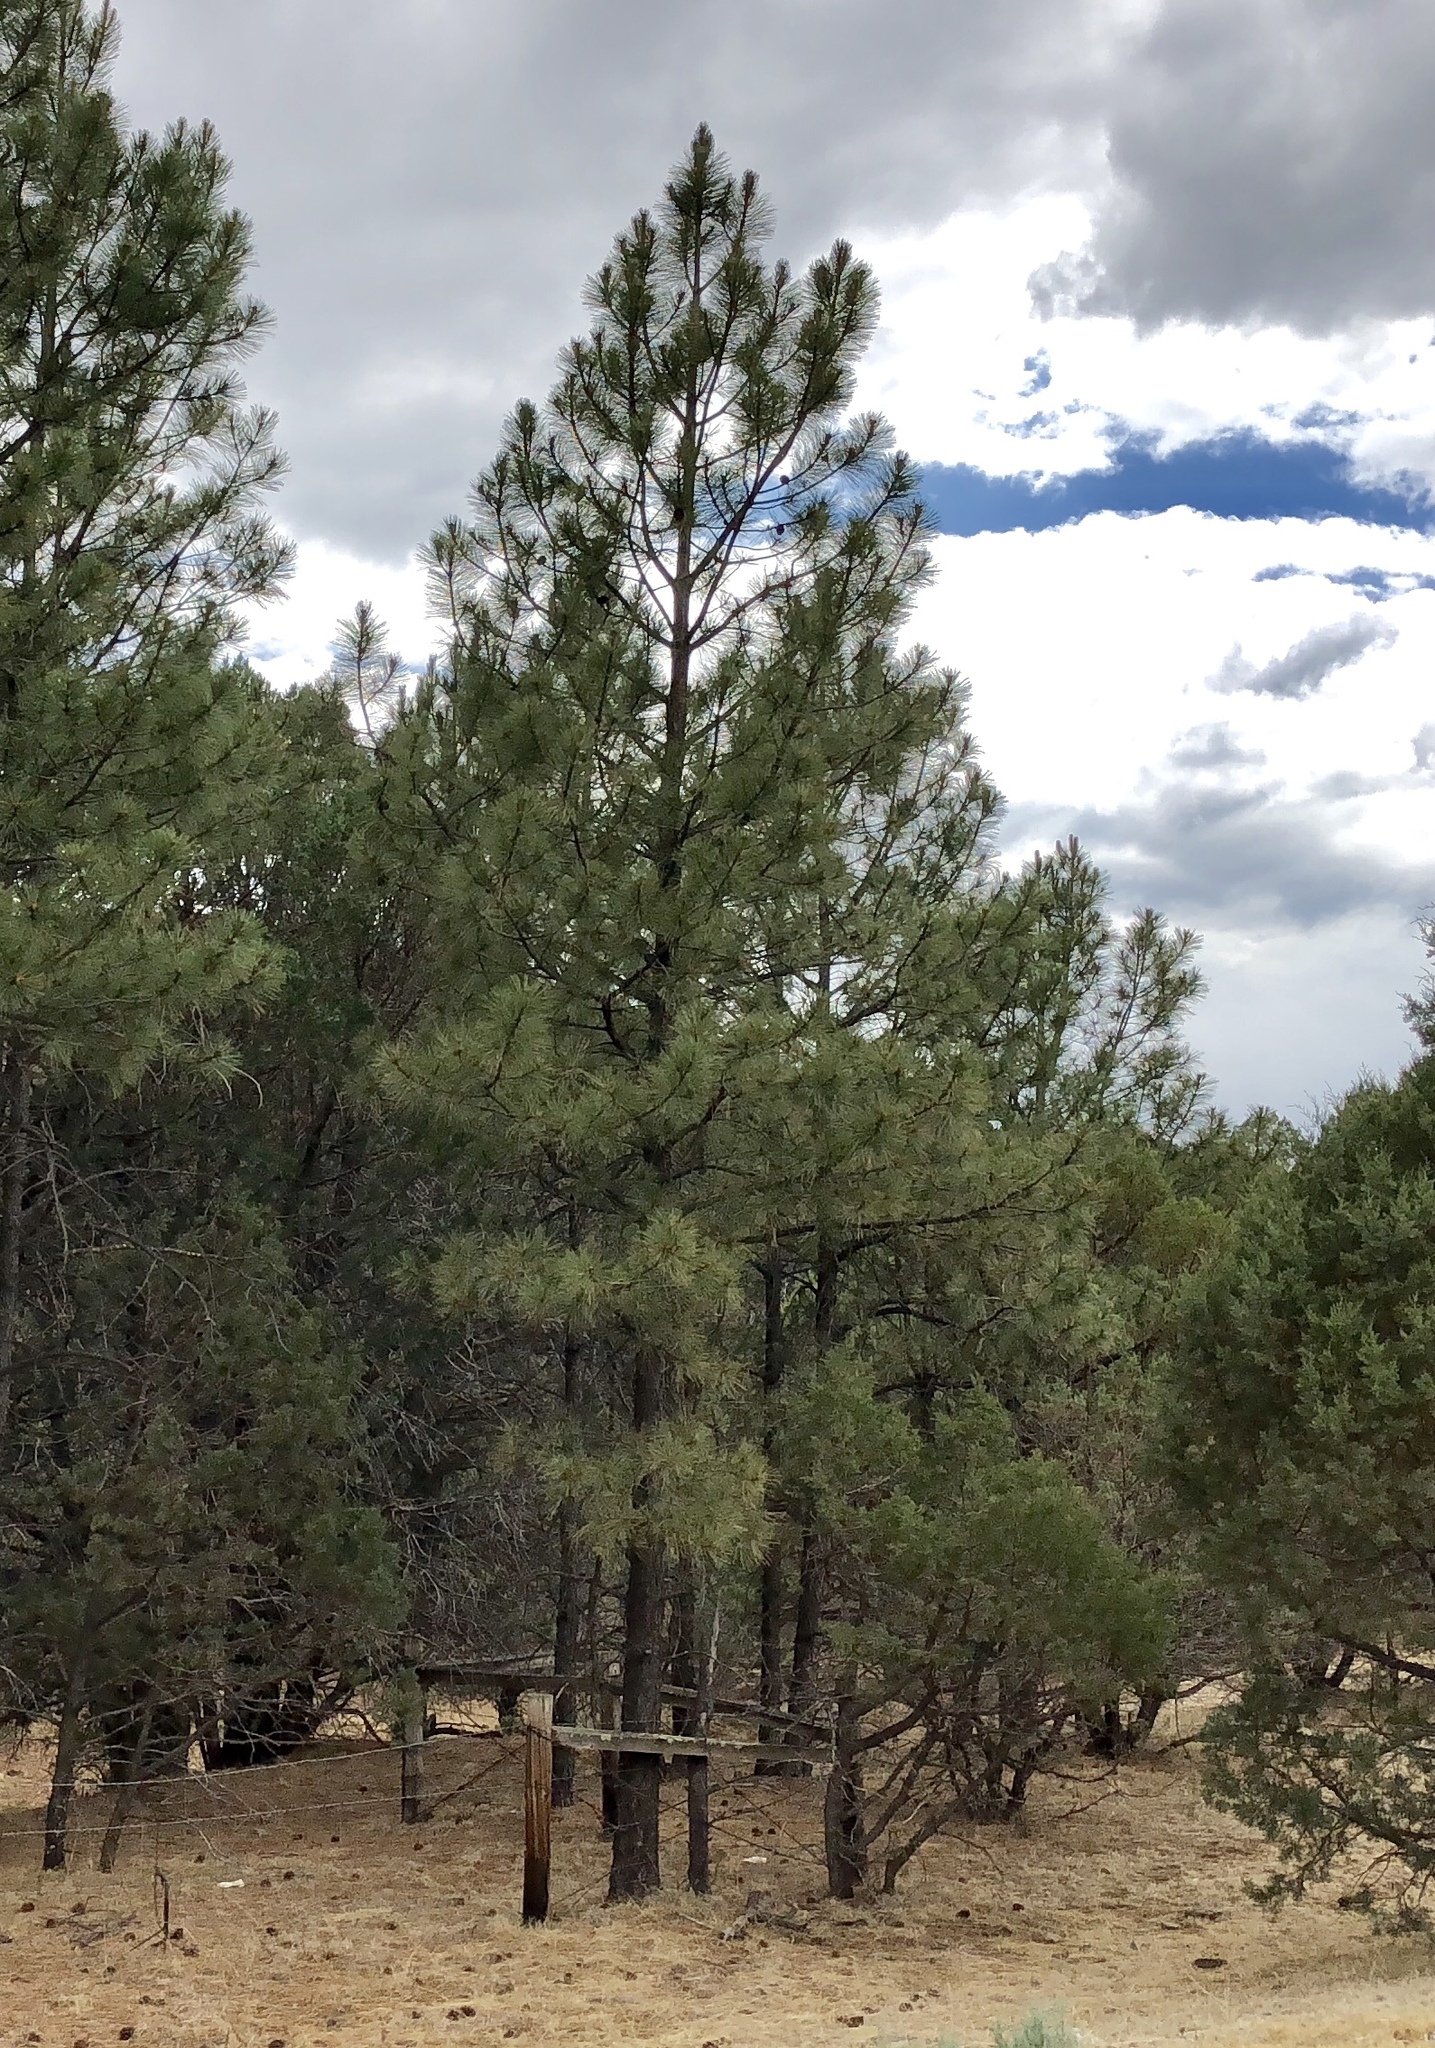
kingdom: Plantae
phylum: Tracheophyta
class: Pinopsida
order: Pinales
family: Pinaceae
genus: Pinus
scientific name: Pinus ponderosa
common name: Western yellow-pine
